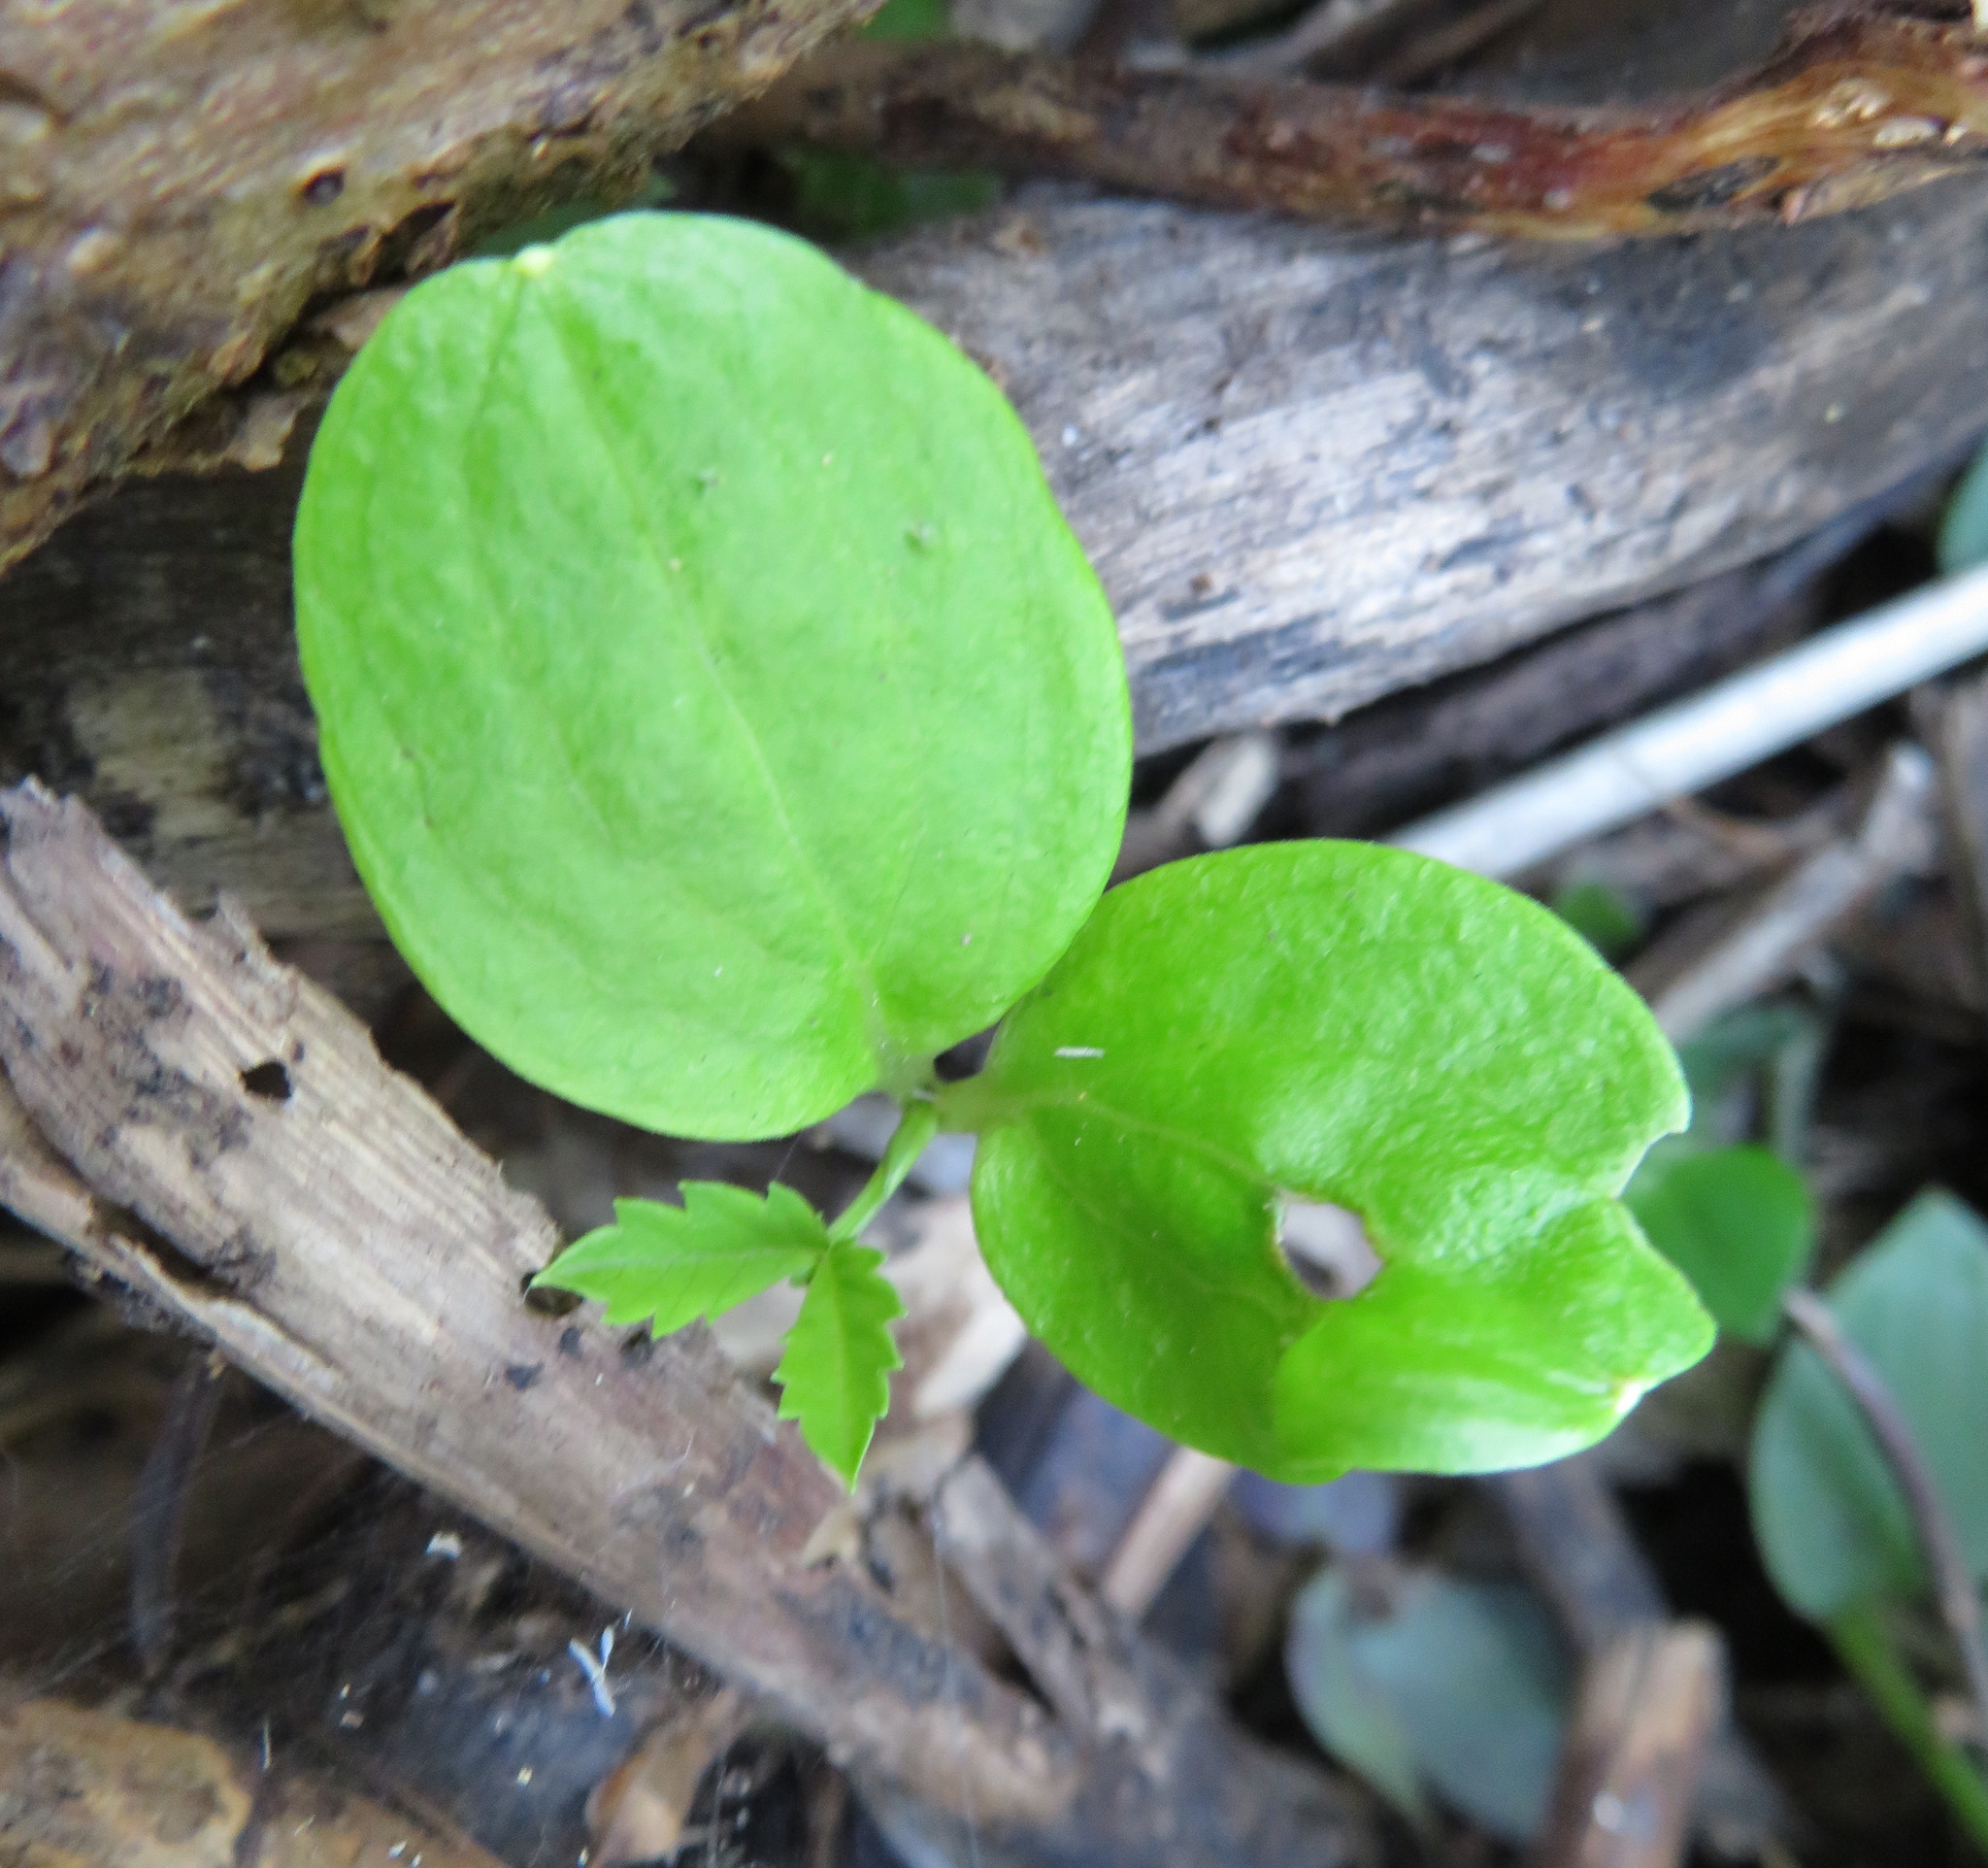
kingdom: Plantae
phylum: Tracheophyta
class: Magnoliopsida
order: Geraniales
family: Melianthaceae
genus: Melianthus
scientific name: Melianthus major
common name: Honey-flower
